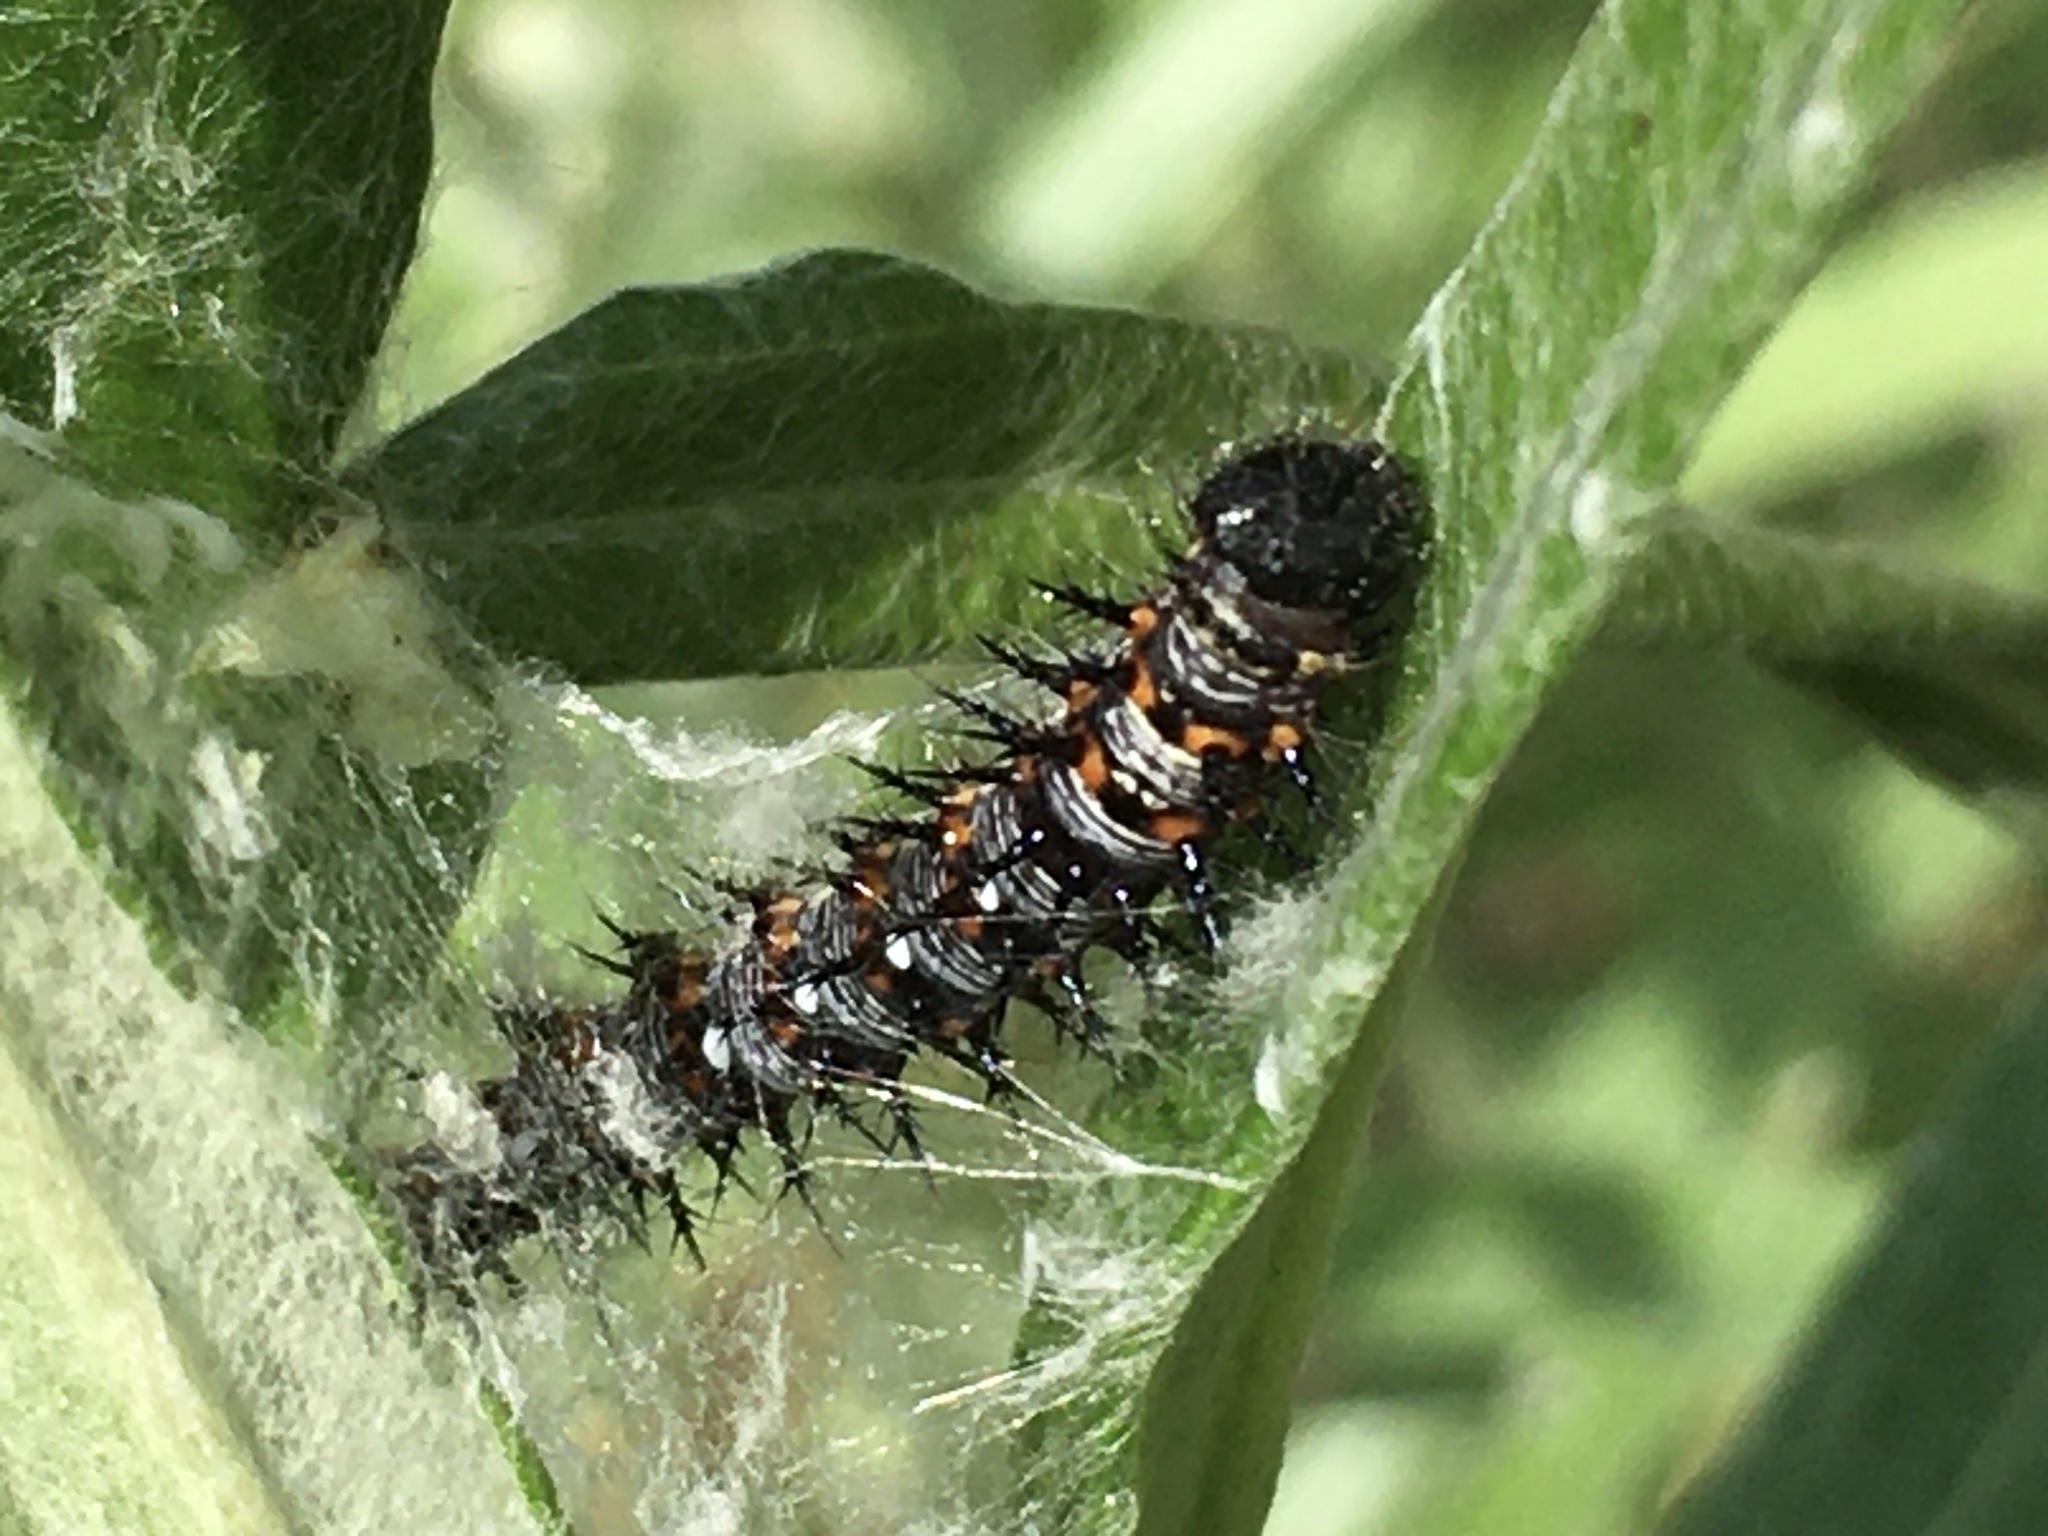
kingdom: Animalia
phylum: Arthropoda
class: Insecta
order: Lepidoptera
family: Nymphalidae
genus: Vanessa
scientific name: Vanessa virginiensis
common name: American lady
